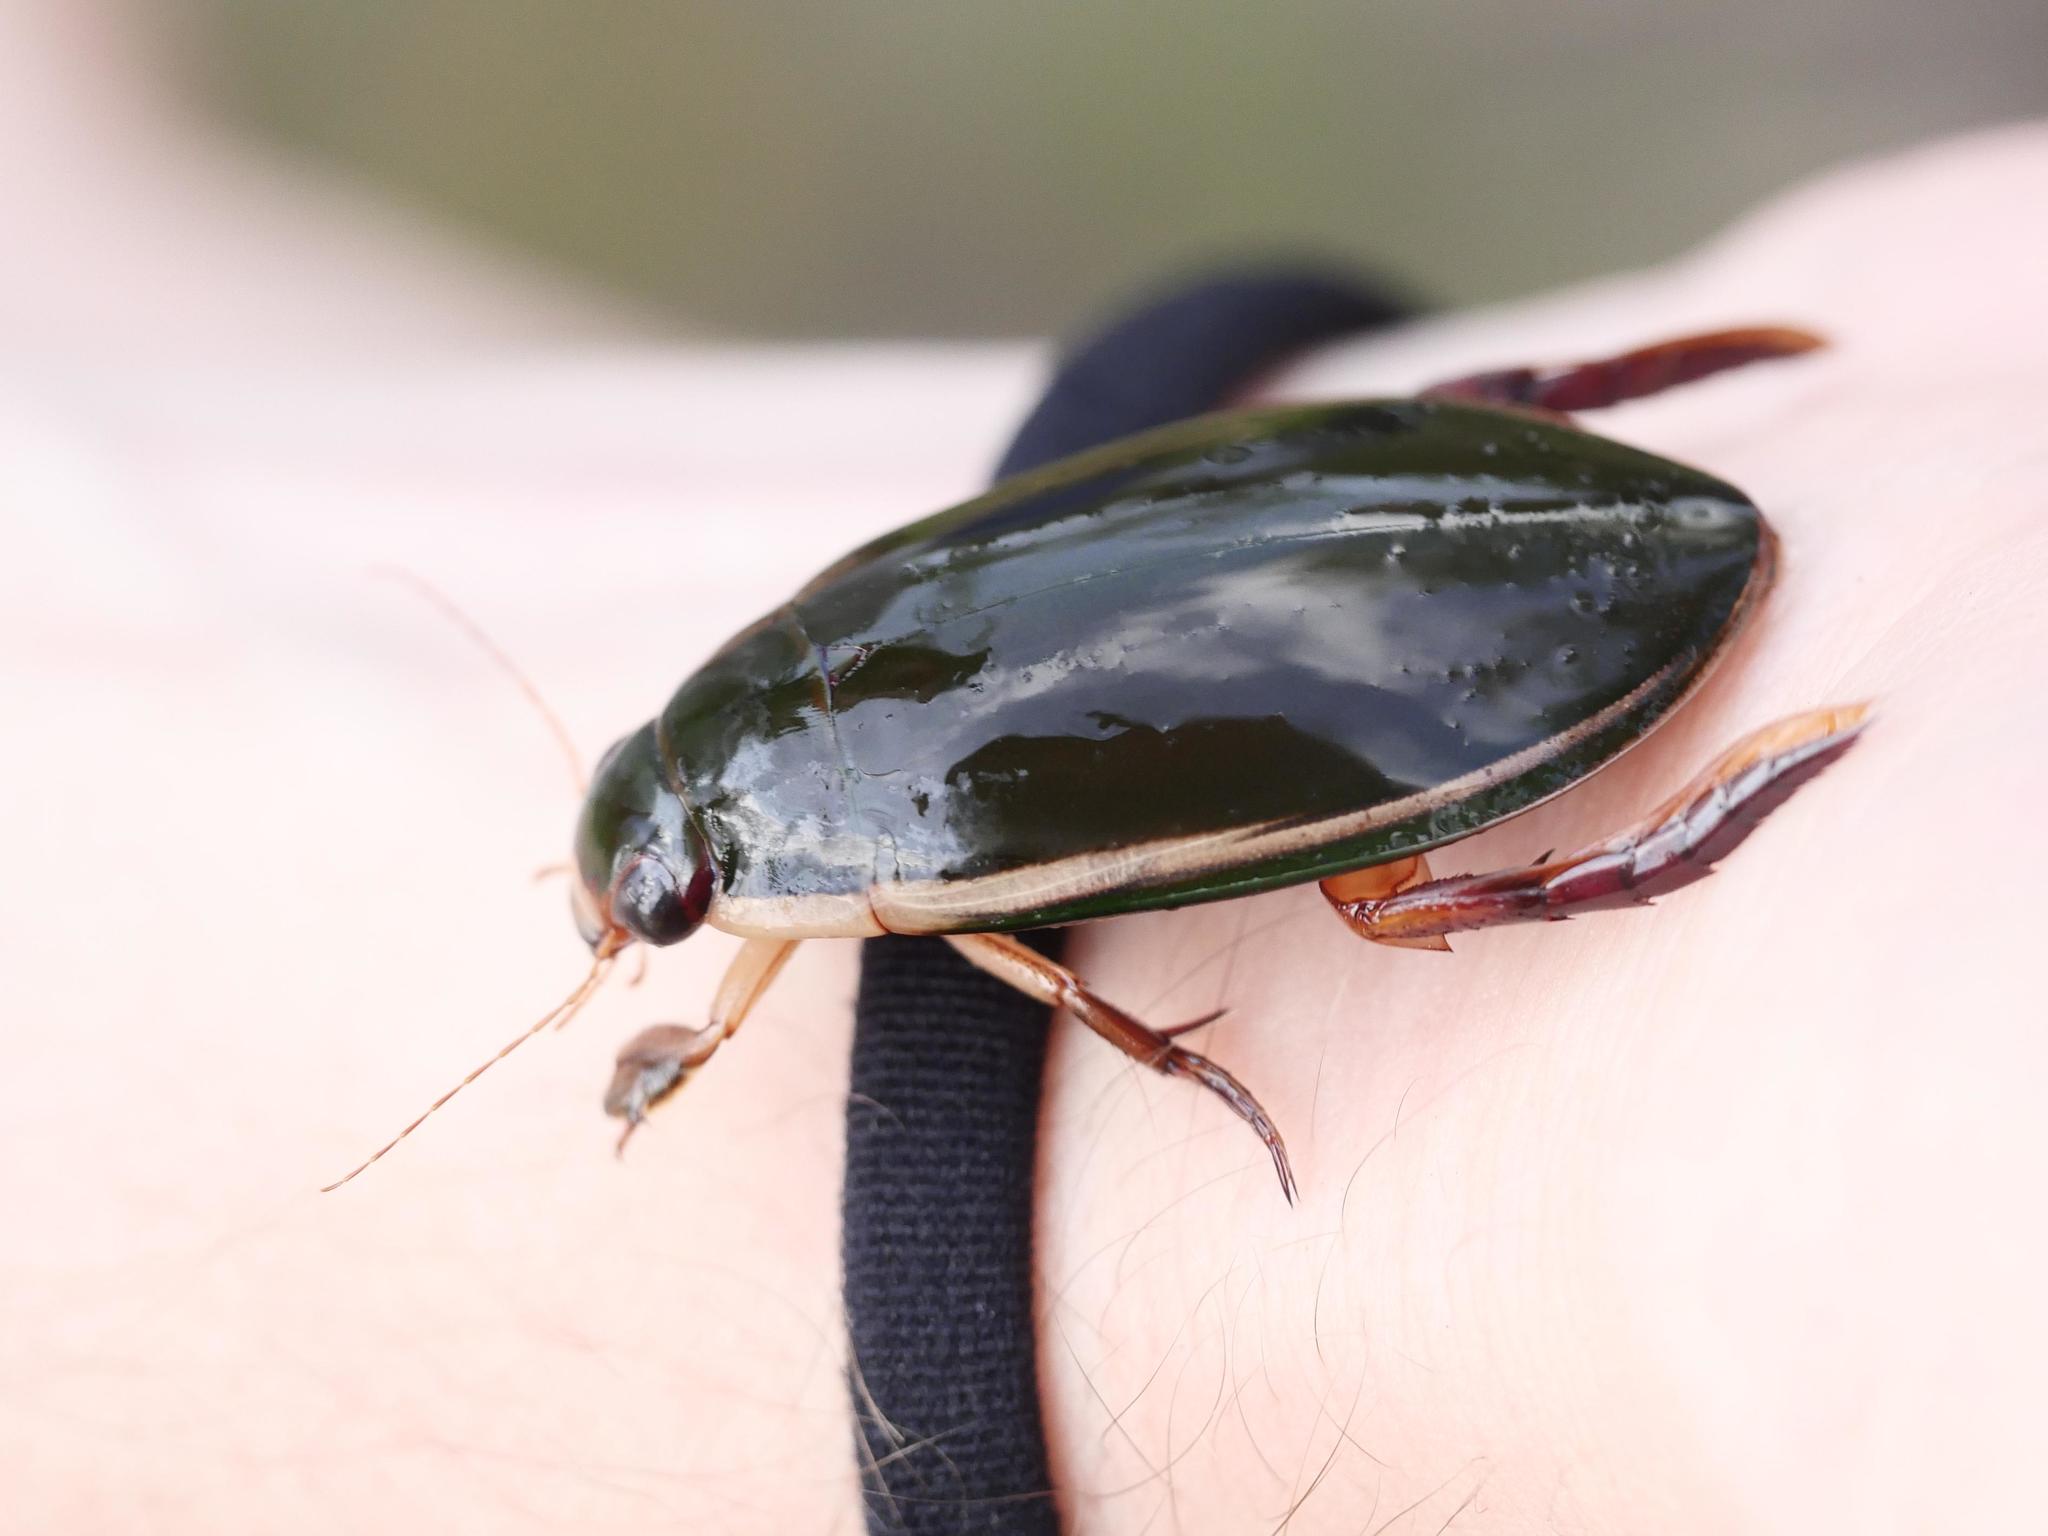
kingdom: Animalia
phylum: Arthropoda
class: Insecta
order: Coleoptera
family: Dytiscidae
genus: Cybister
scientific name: Cybister lateralimarginalis
